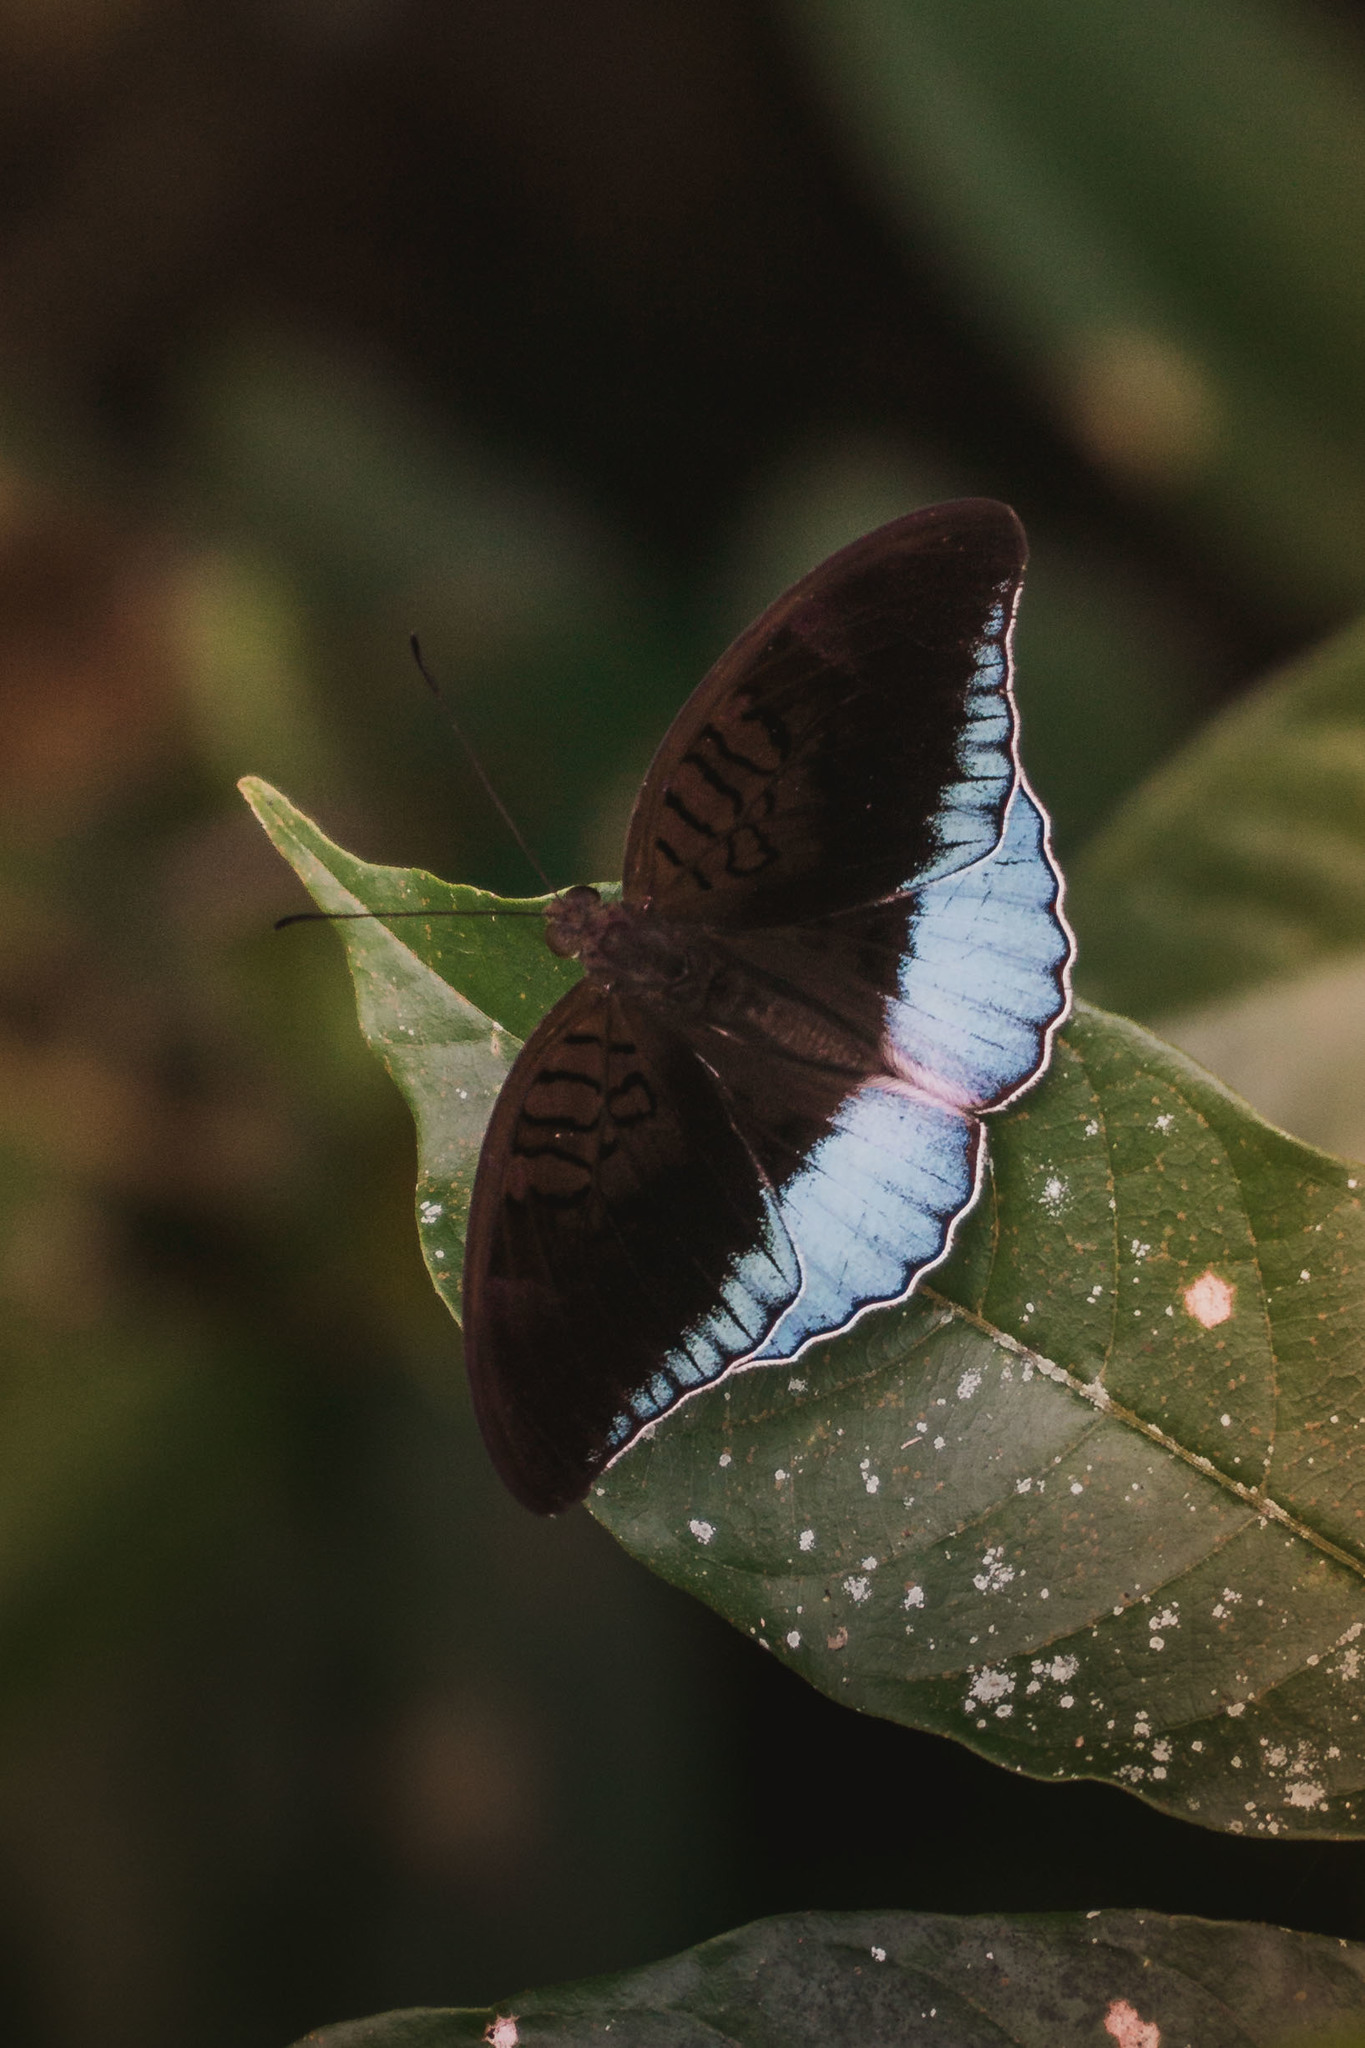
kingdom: Animalia
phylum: Arthropoda
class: Insecta
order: Lepidoptera
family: Nymphalidae
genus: Tanaecia
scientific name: Tanaecia iapis
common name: Horsfield's baron
